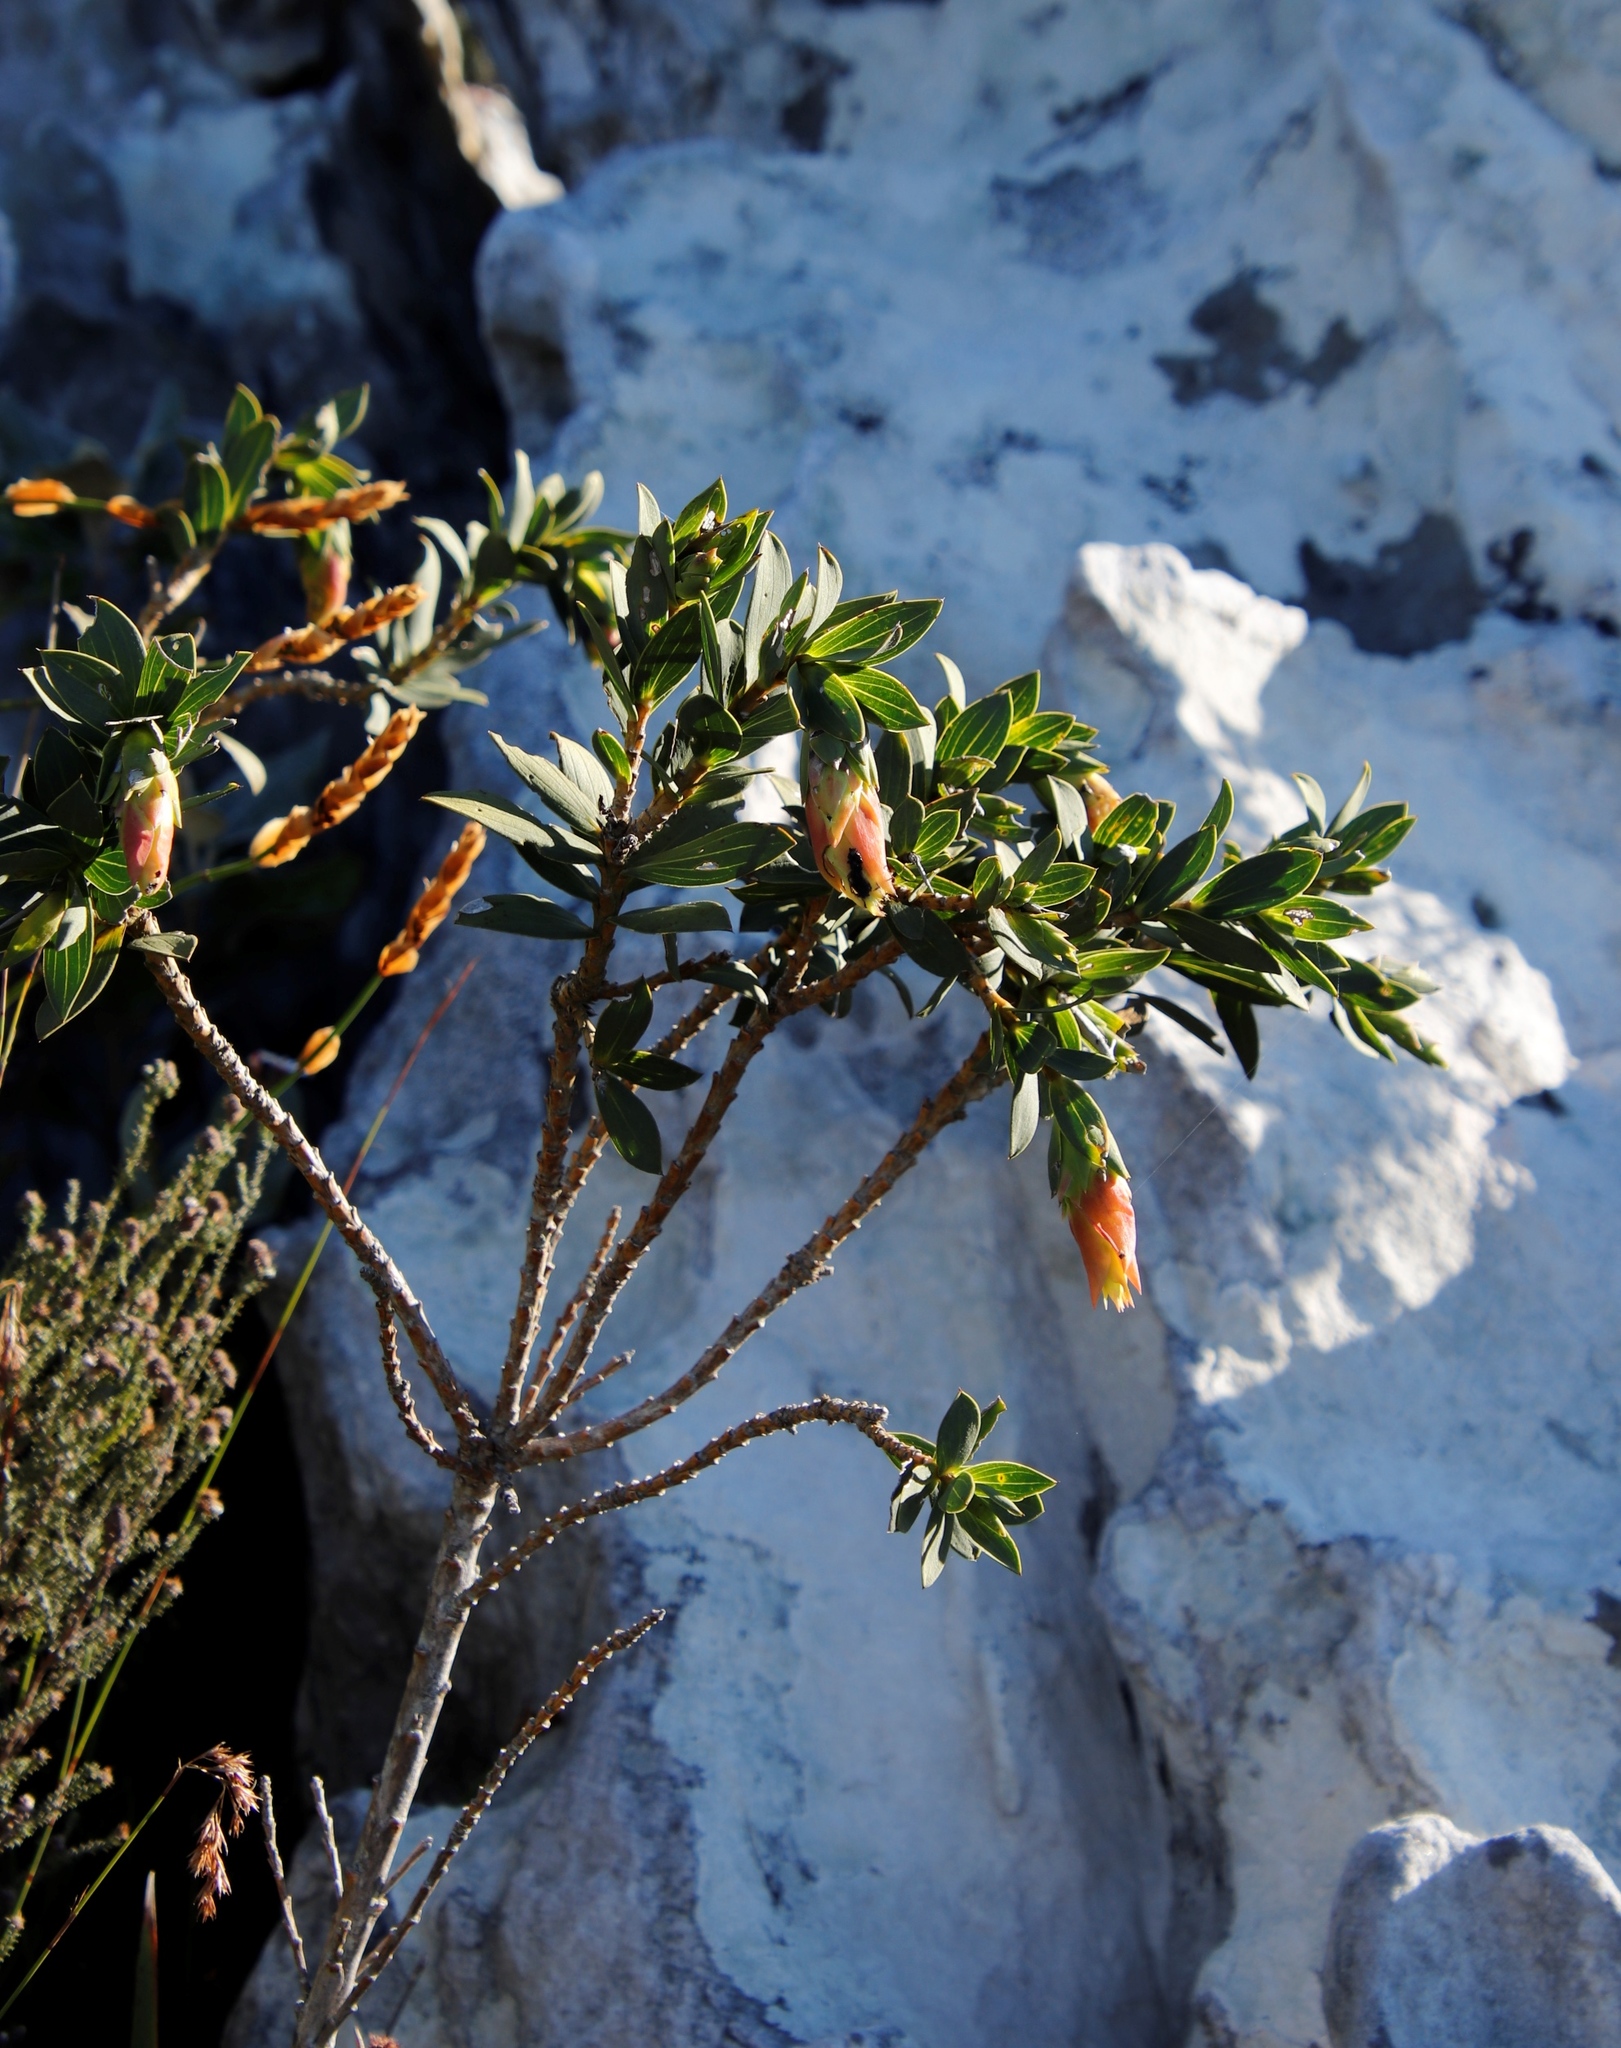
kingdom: Plantae
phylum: Tracheophyta
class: Magnoliopsida
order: Fabales
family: Fabaceae
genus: Liparia
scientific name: Liparia splendens
